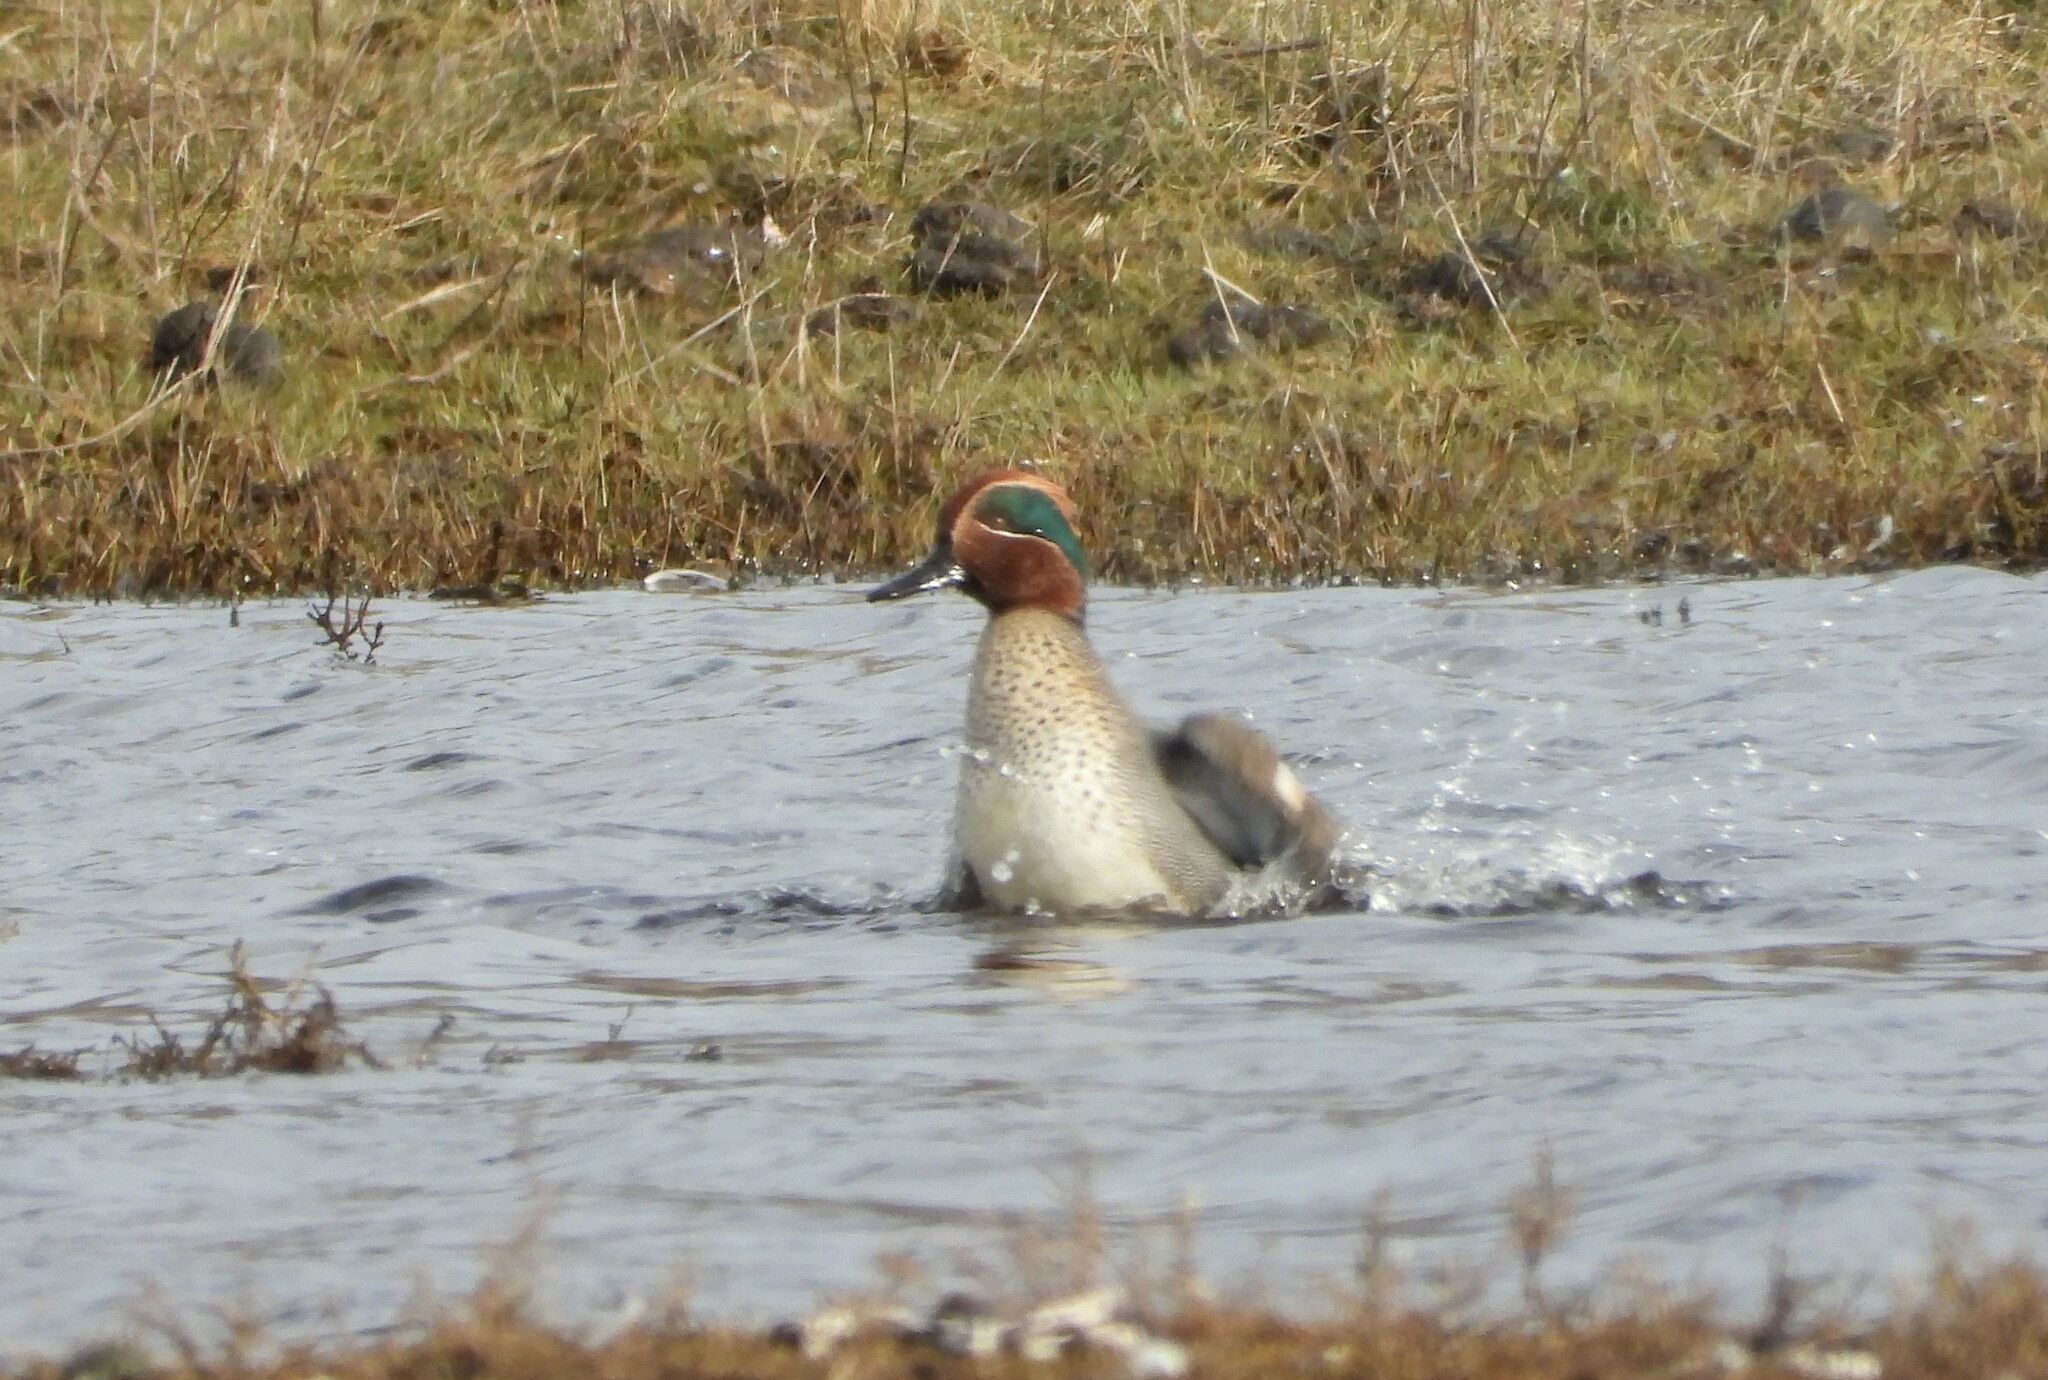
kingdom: Animalia
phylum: Chordata
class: Aves
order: Anseriformes
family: Anatidae
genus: Anas
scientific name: Anas crecca
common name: Eurasian teal
